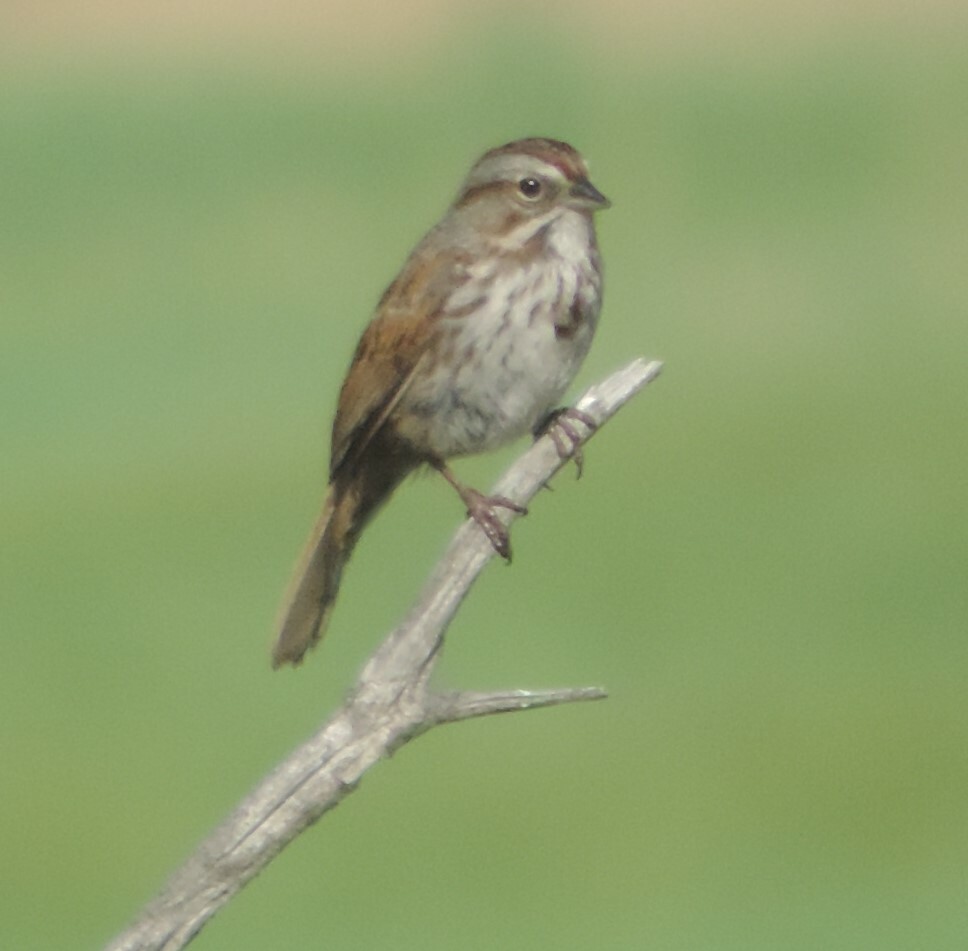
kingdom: Animalia
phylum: Chordata
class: Aves
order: Passeriformes
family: Passerellidae
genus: Melospiza
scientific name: Melospiza melodia
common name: Song sparrow
